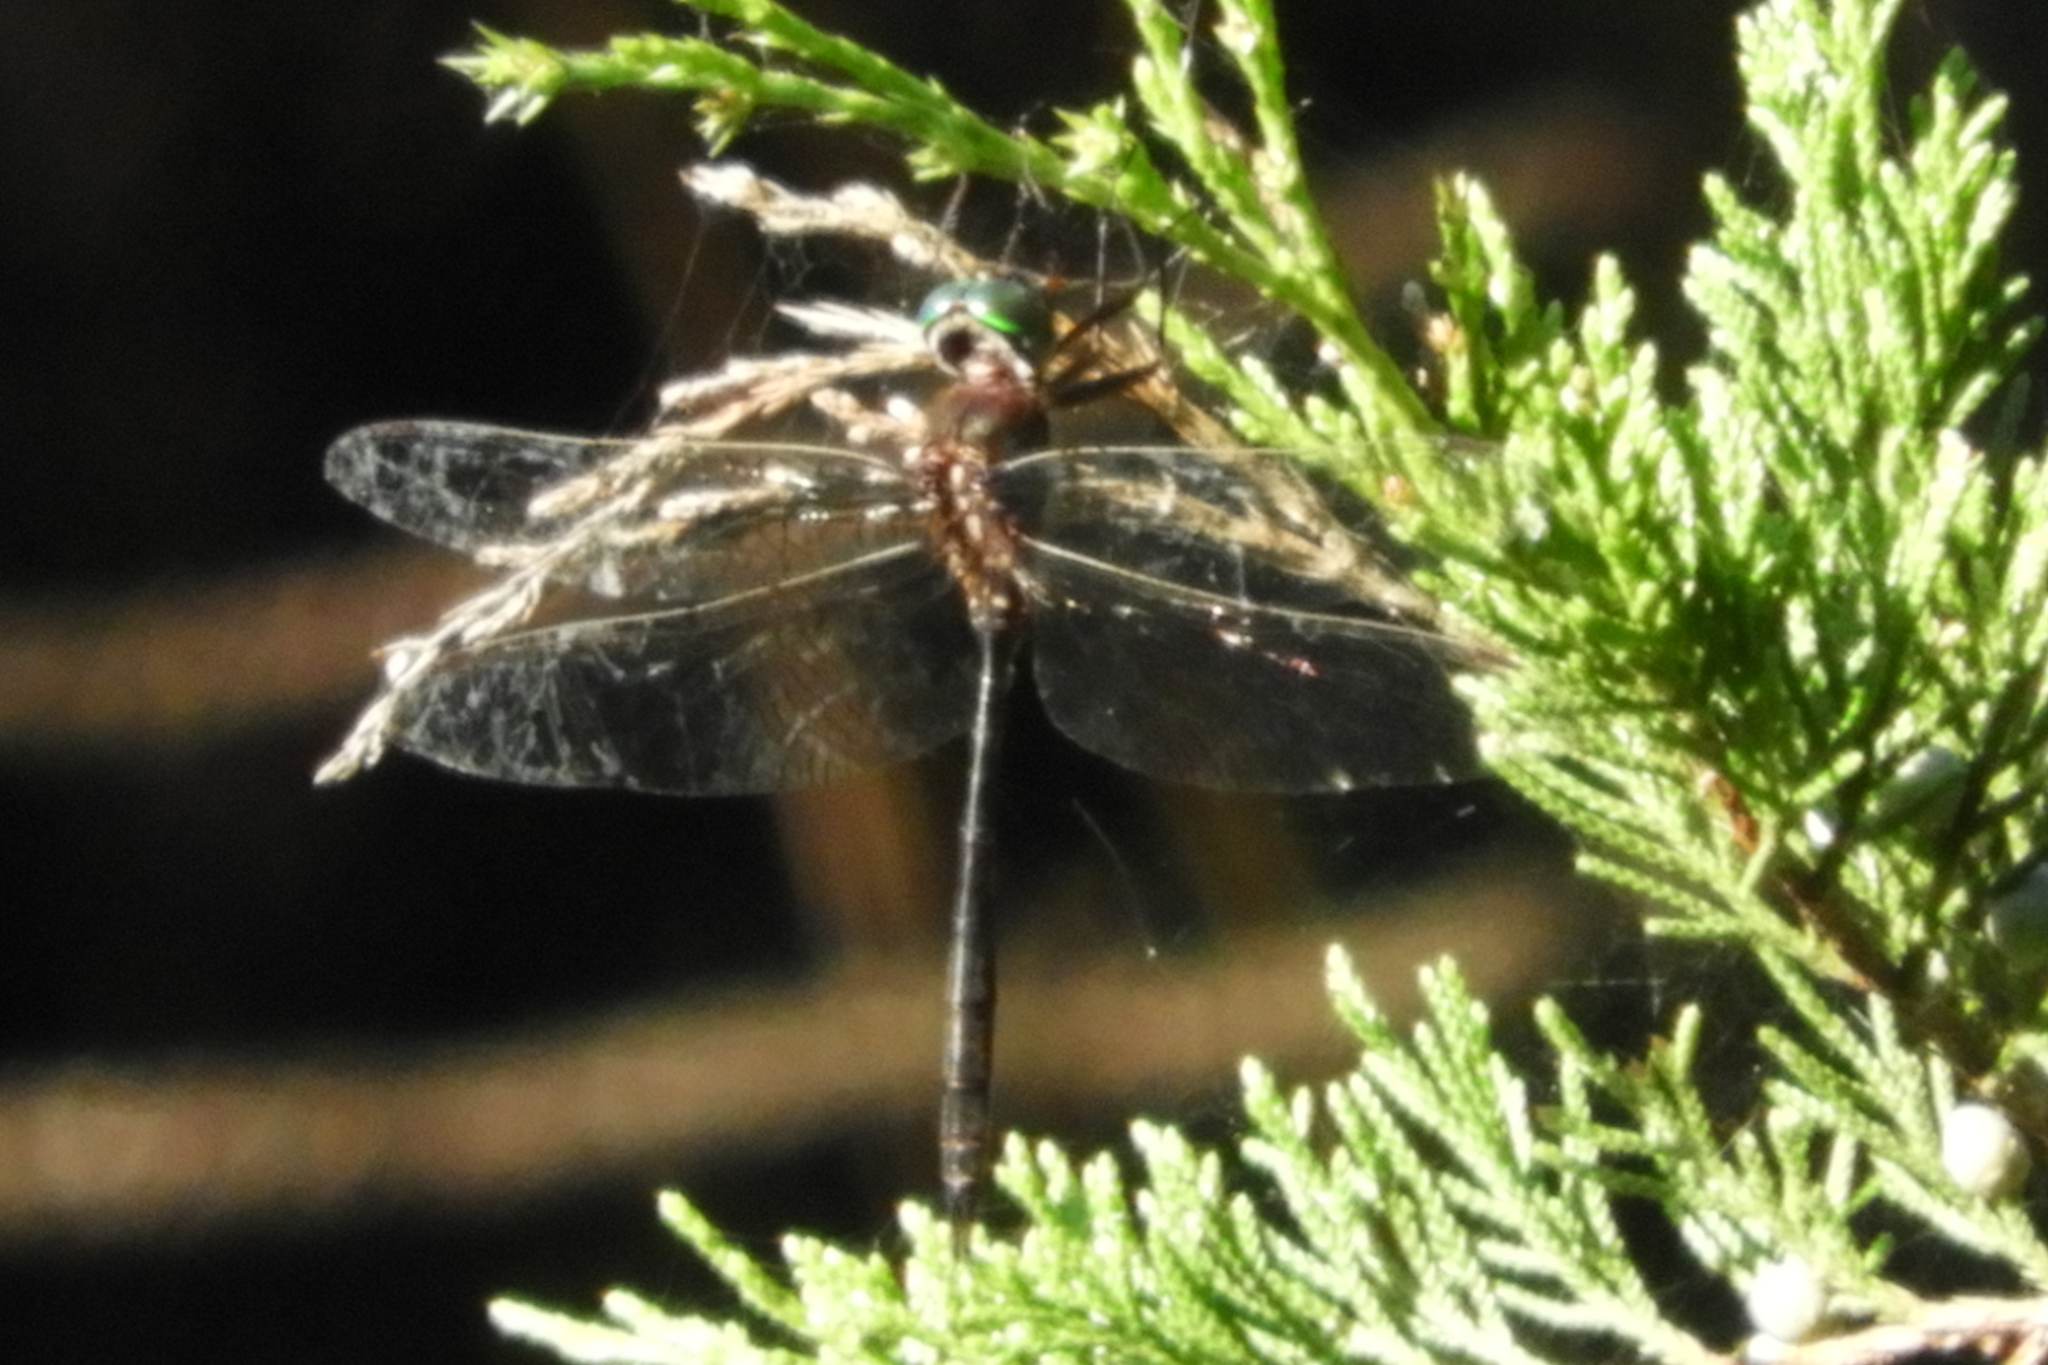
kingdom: Animalia
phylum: Arthropoda
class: Insecta
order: Odonata
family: Corduliidae
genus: Somatochlora
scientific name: Somatochlora filosa
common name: Fine-lined emerald
